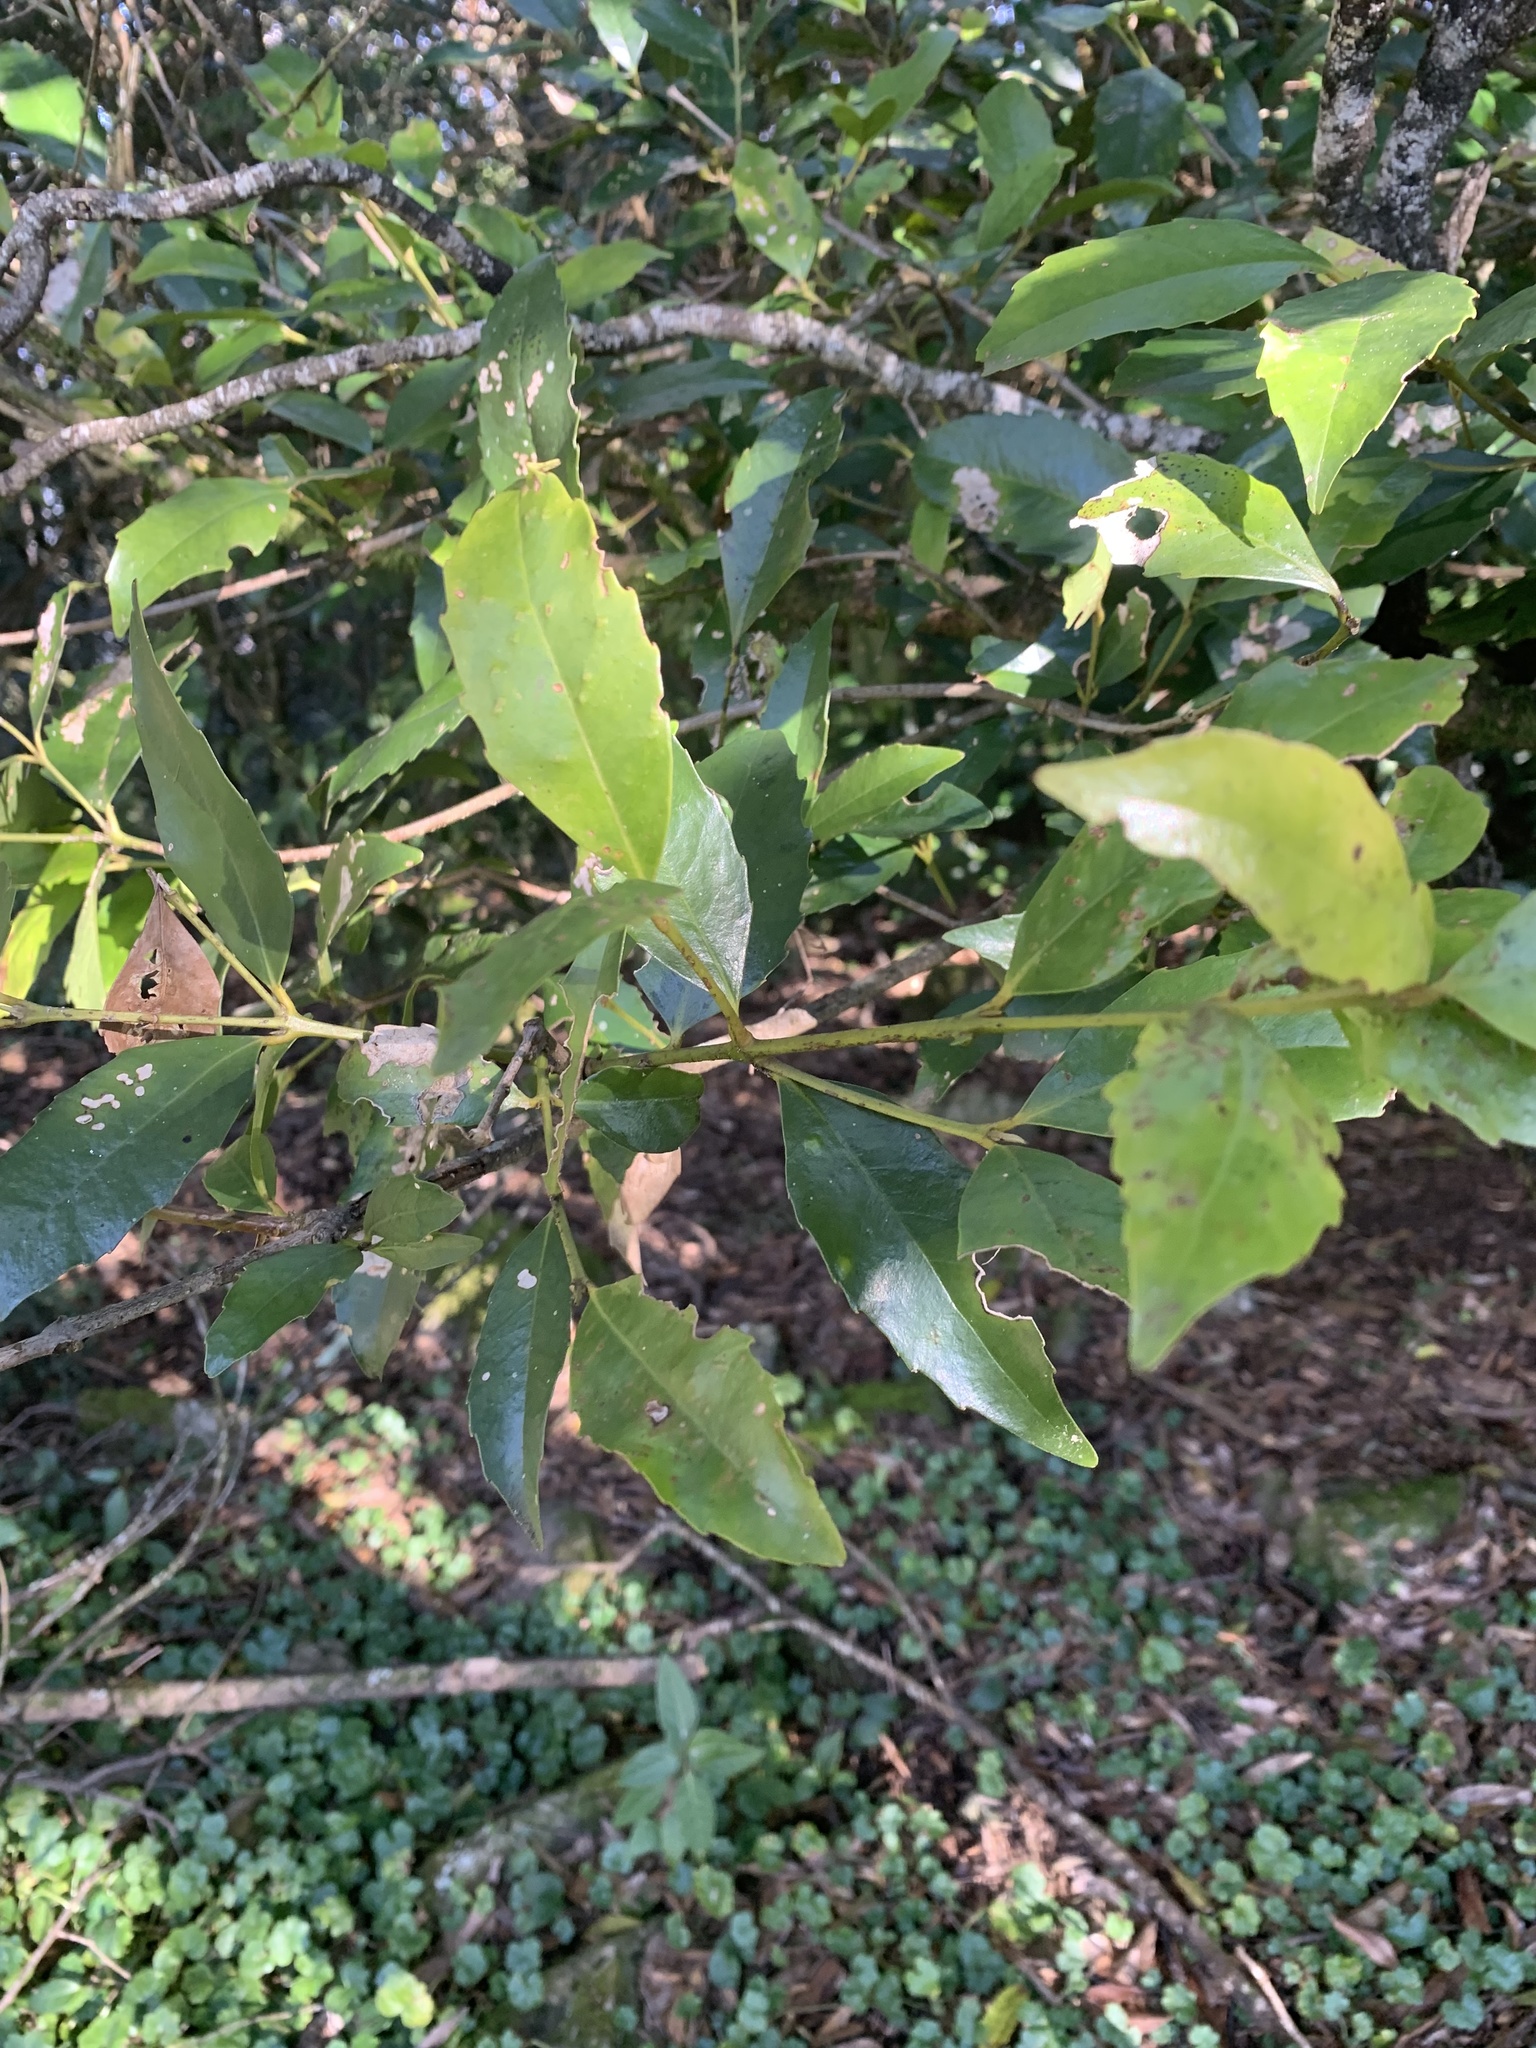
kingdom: Plantae
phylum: Tracheophyta
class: Magnoliopsida
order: Laurales
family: Atherospermataceae
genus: Doryphora
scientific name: Doryphora sassafras
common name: Golden-sassafras
